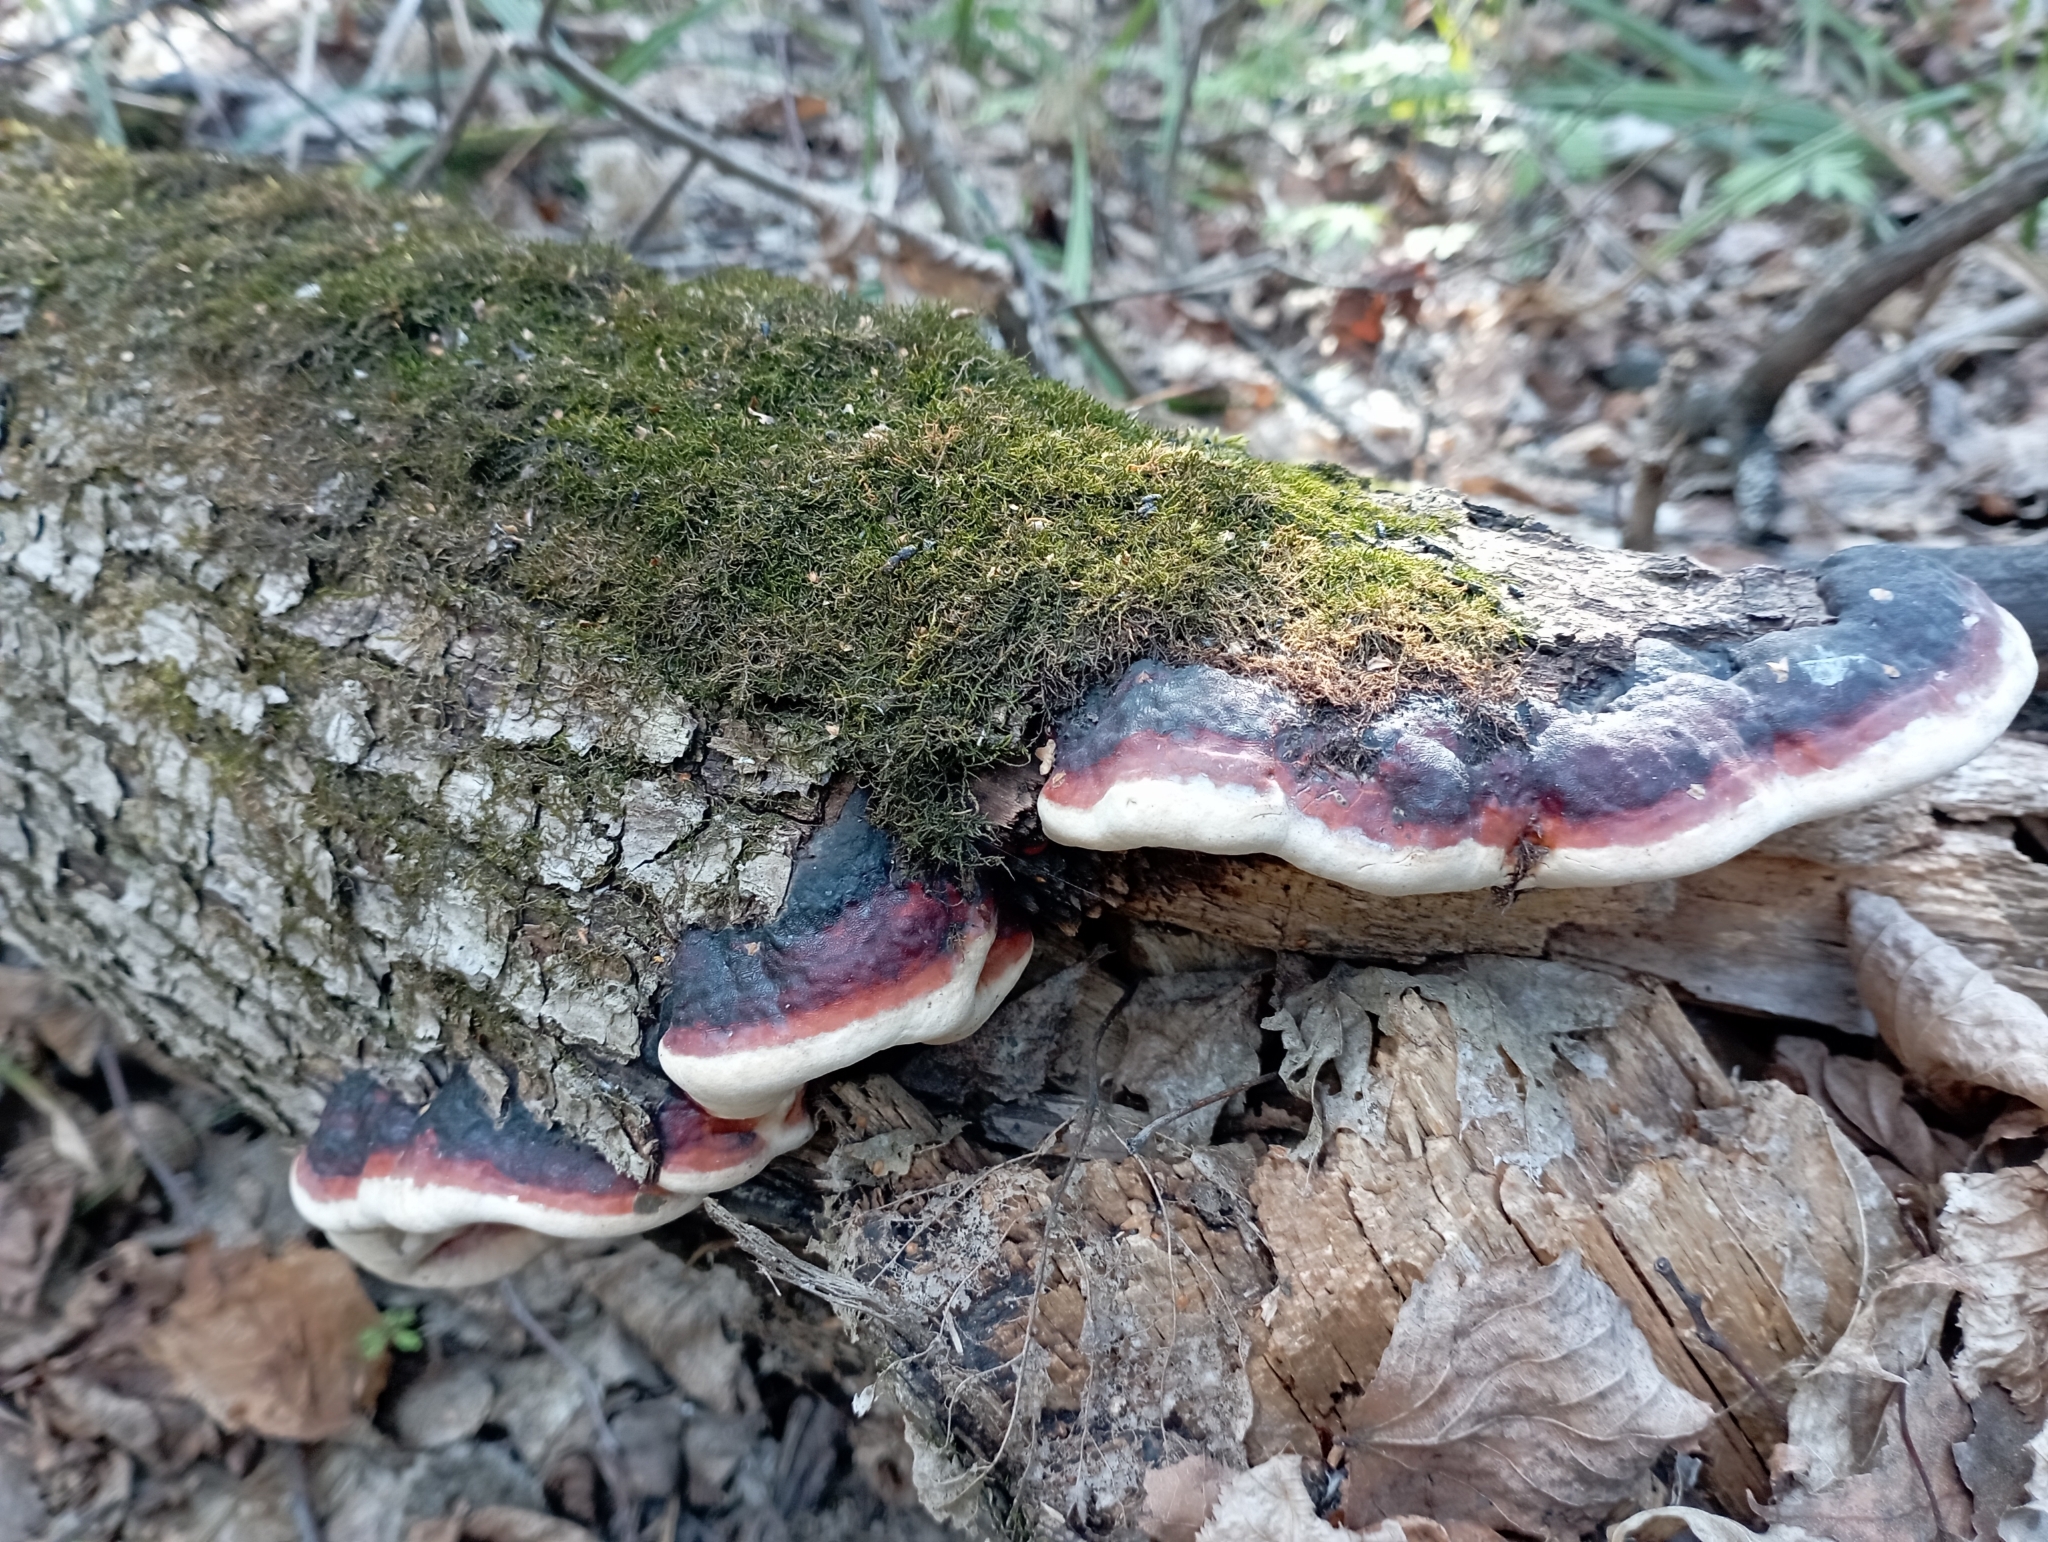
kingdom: Fungi
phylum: Basidiomycota
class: Agaricomycetes
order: Polyporales
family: Fomitopsidaceae
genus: Fomitopsis
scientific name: Fomitopsis pinicola
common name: Red-belted bracket
